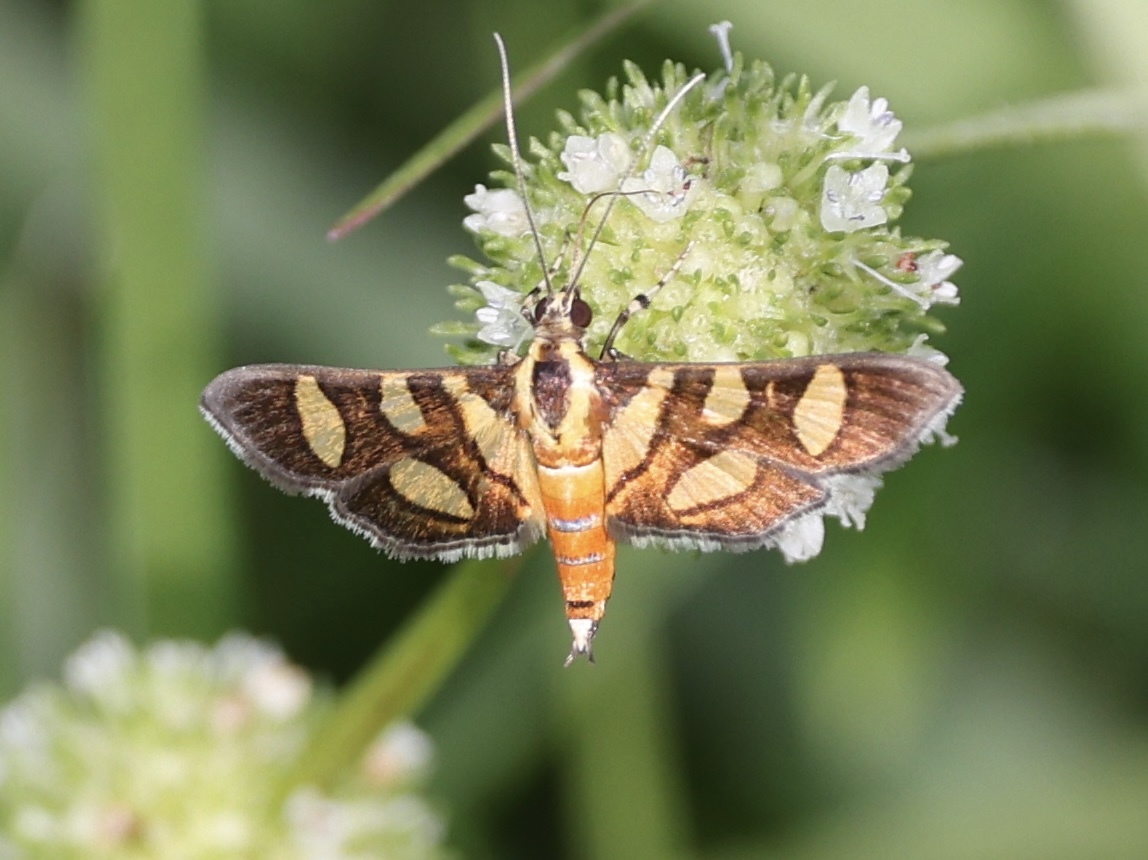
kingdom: Animalia
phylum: Arthropoda
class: Insecta
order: Lepidoptera
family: Crambidae
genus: Syngamia
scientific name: Syngamia florella
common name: Orange-spotted flower moth
